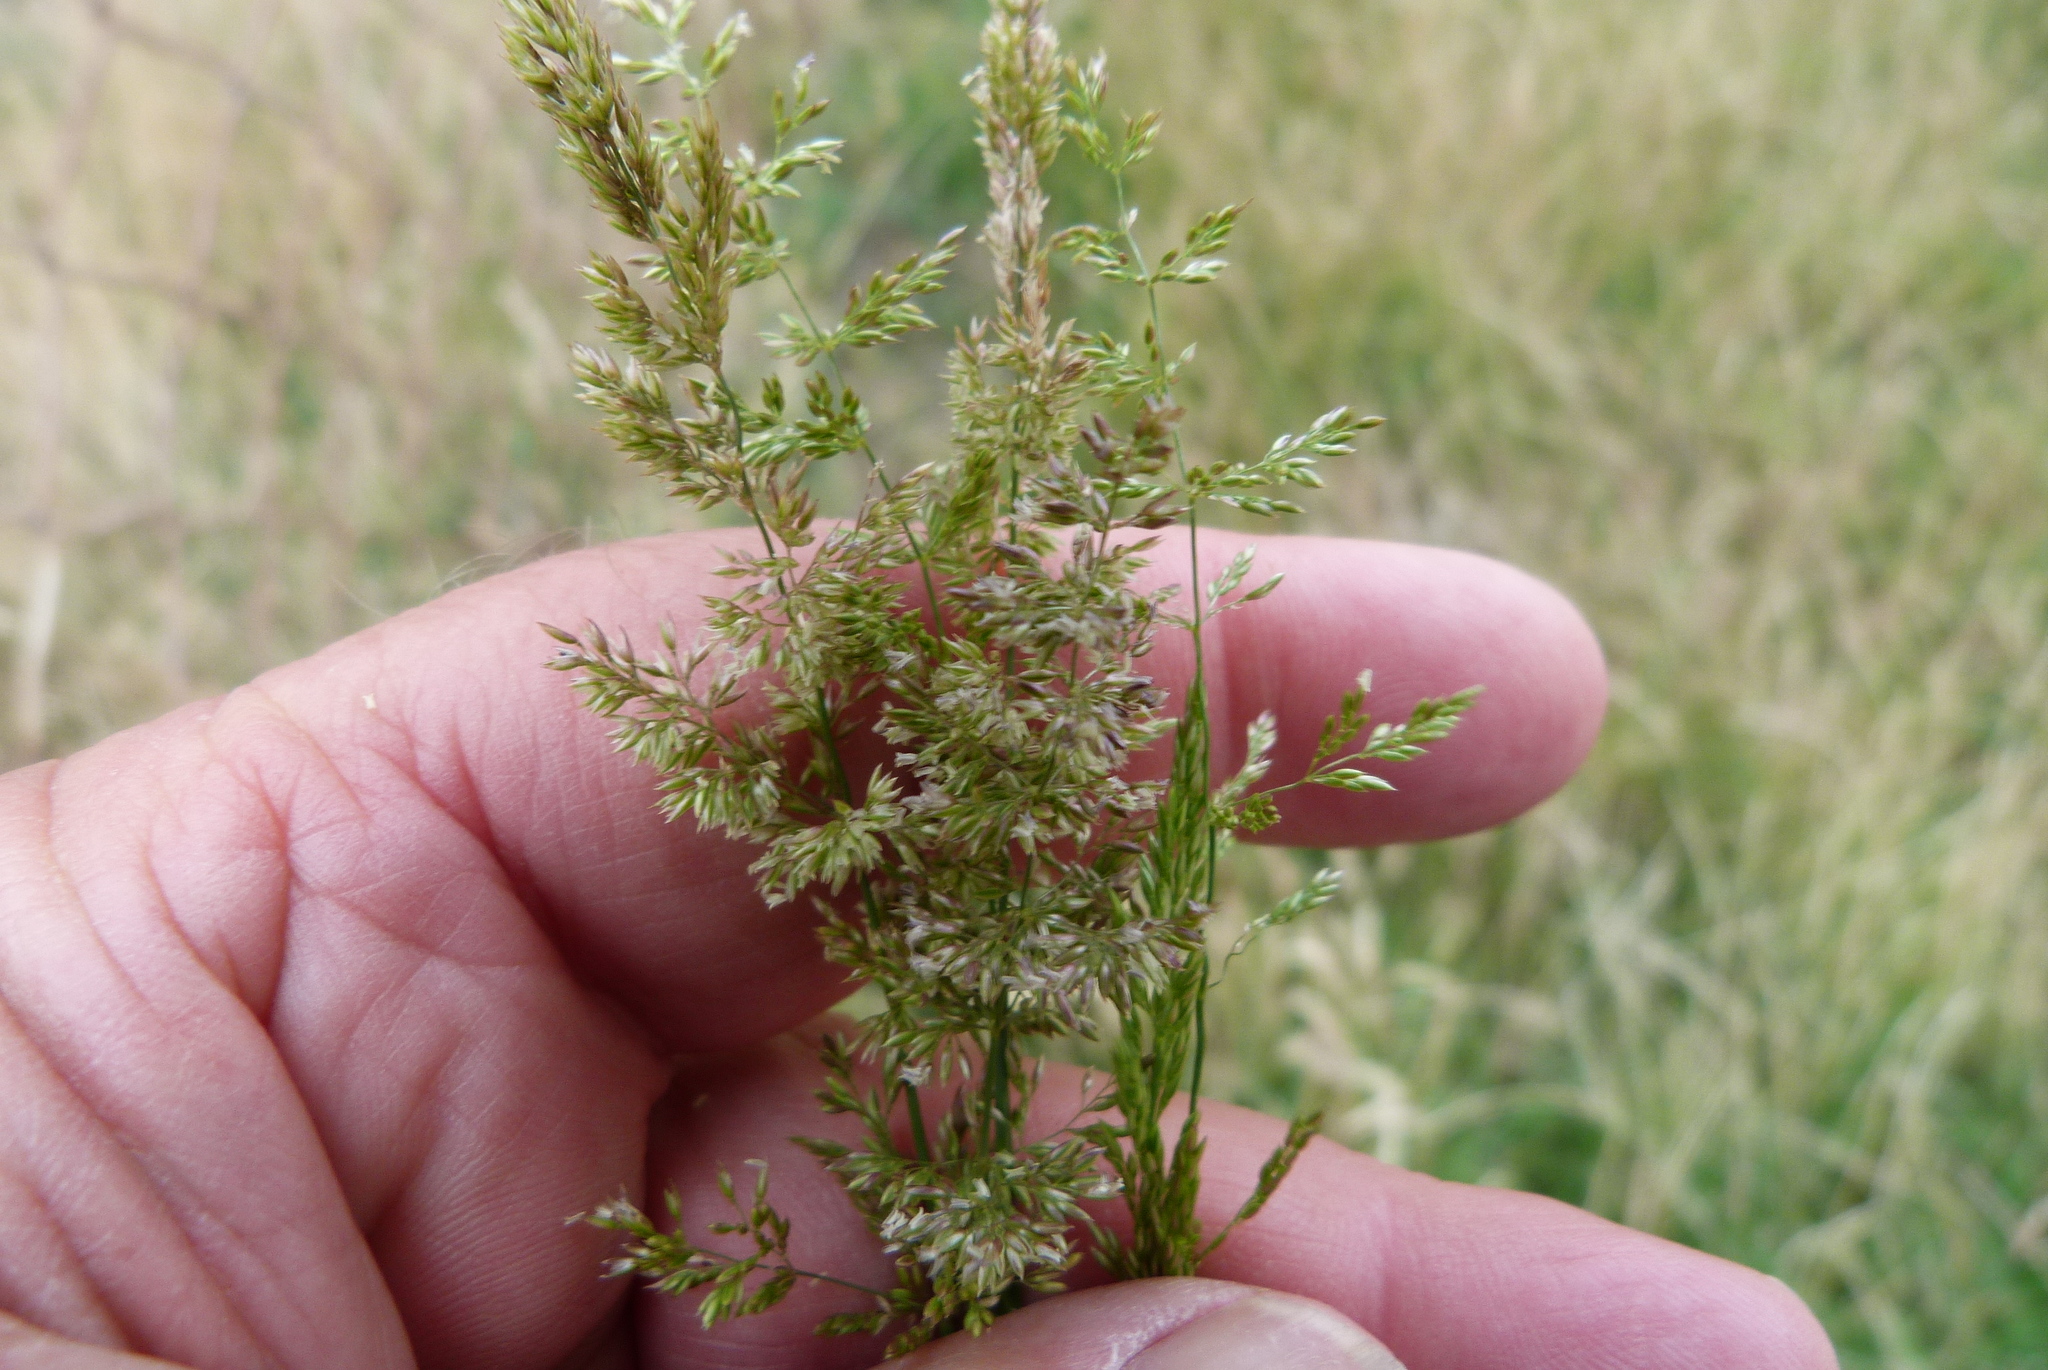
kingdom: Plantae
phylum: Tracheophyta
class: Liliopsida
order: Poales
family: Poaceae
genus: Polypogon
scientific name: Polypogon viridis
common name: Water bent
